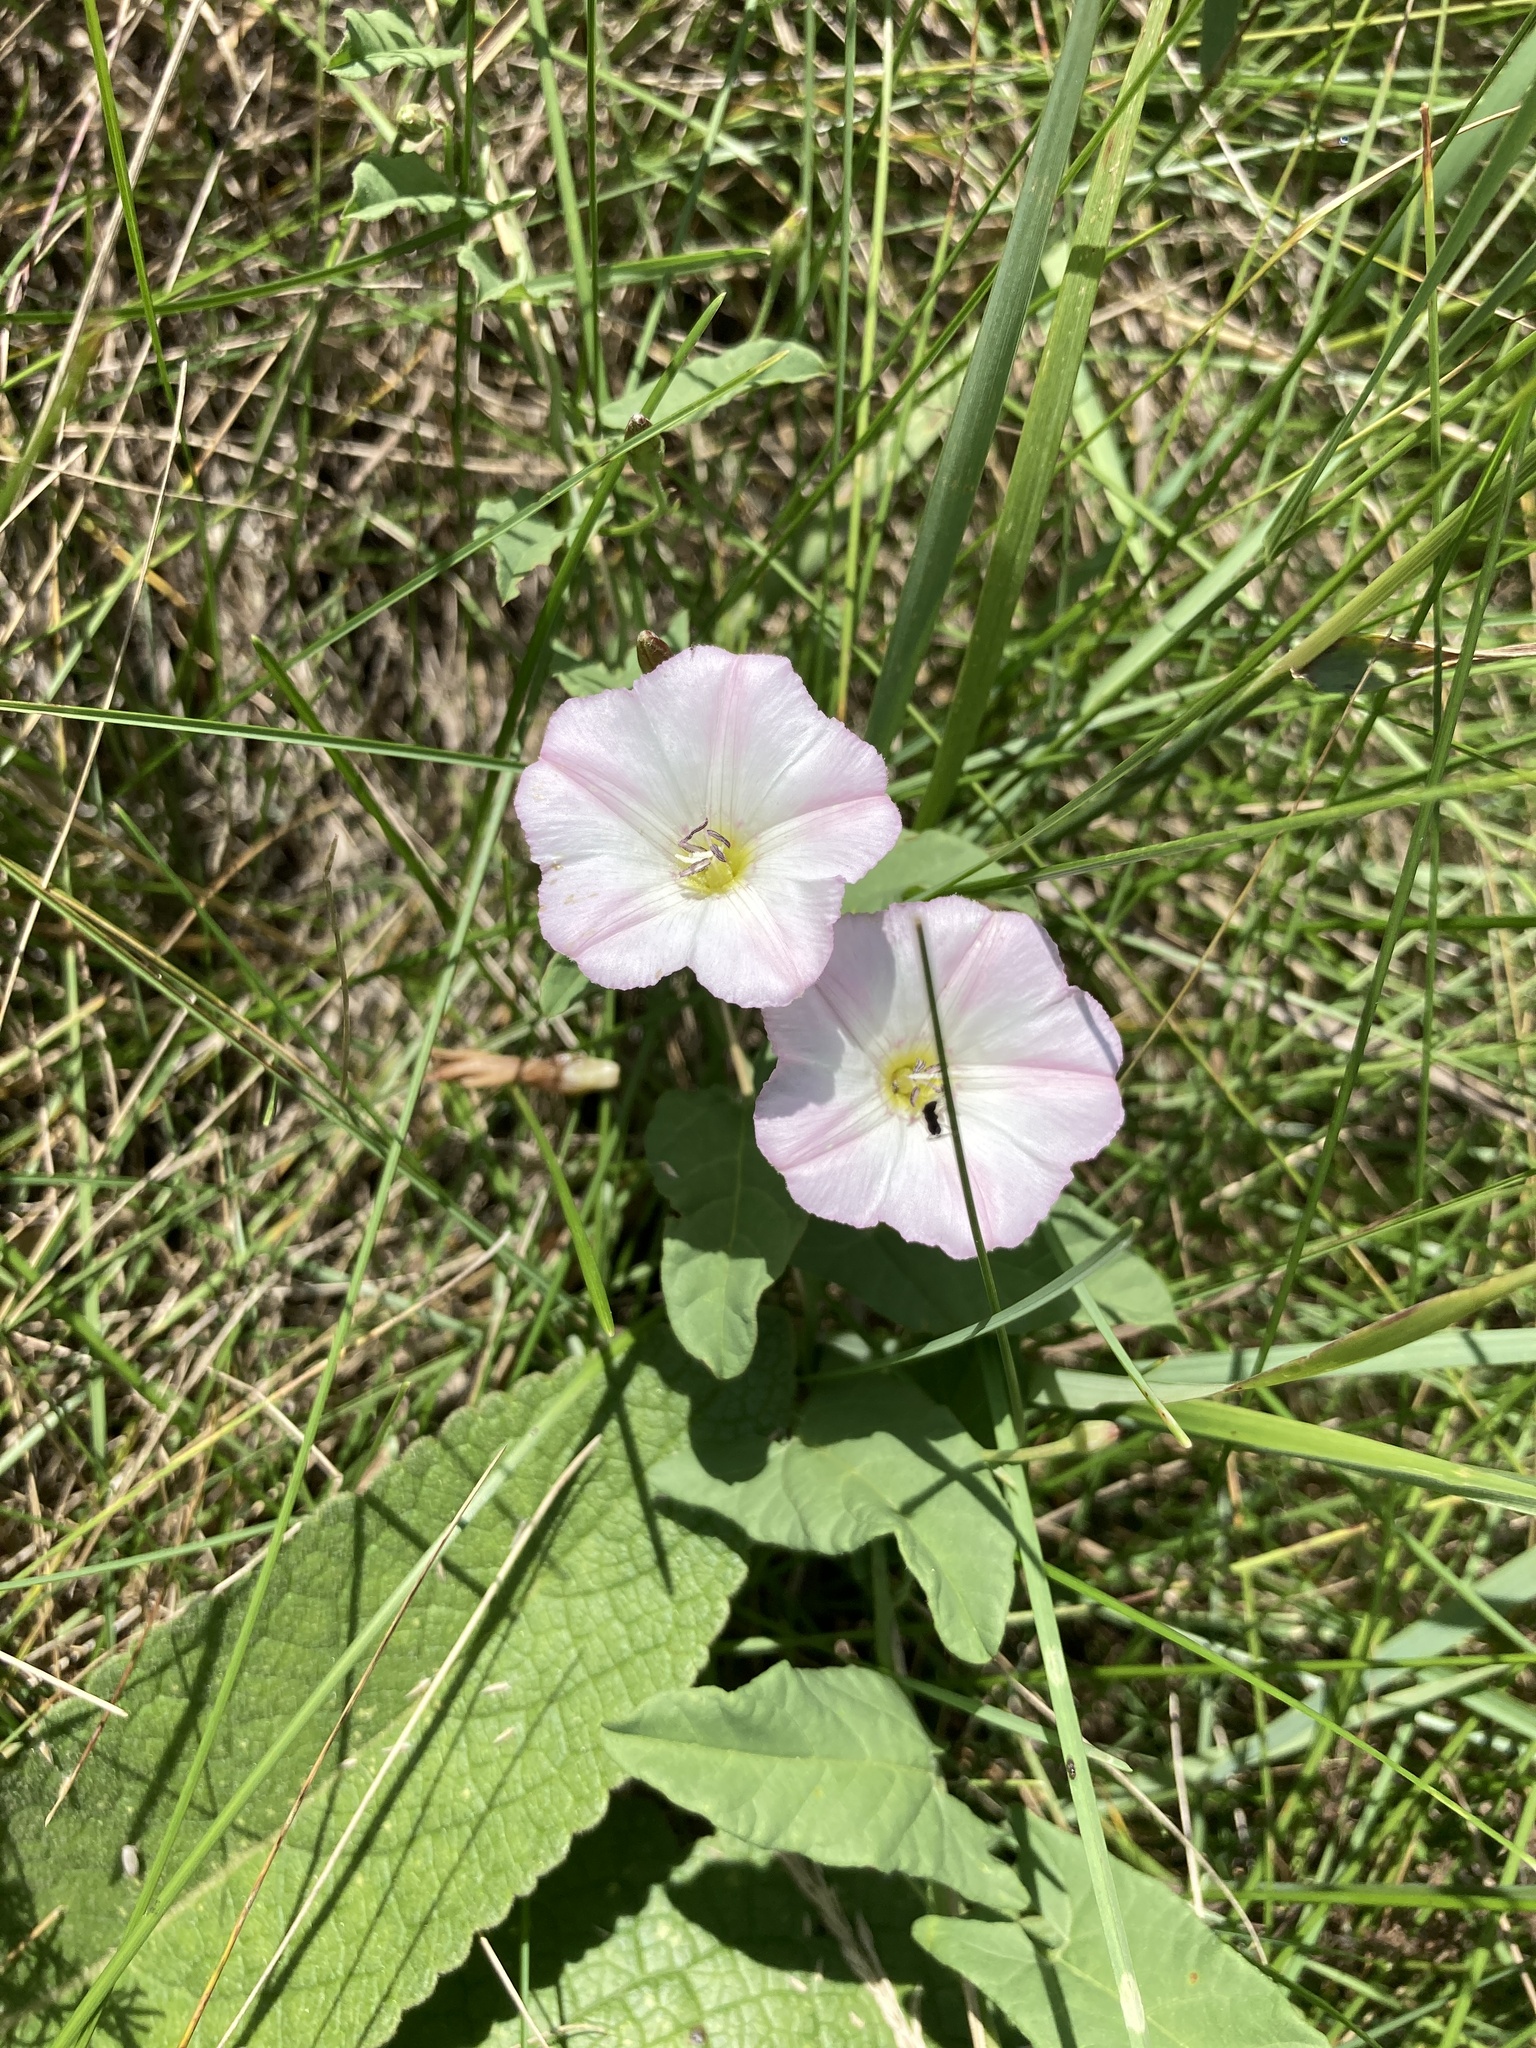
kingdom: Plantae
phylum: Tracheophyta
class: Magnoliopsida
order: Solanales
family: Convolvulaceae
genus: Convolvulus
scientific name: Convolvulus arvensis
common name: Field bindweed
